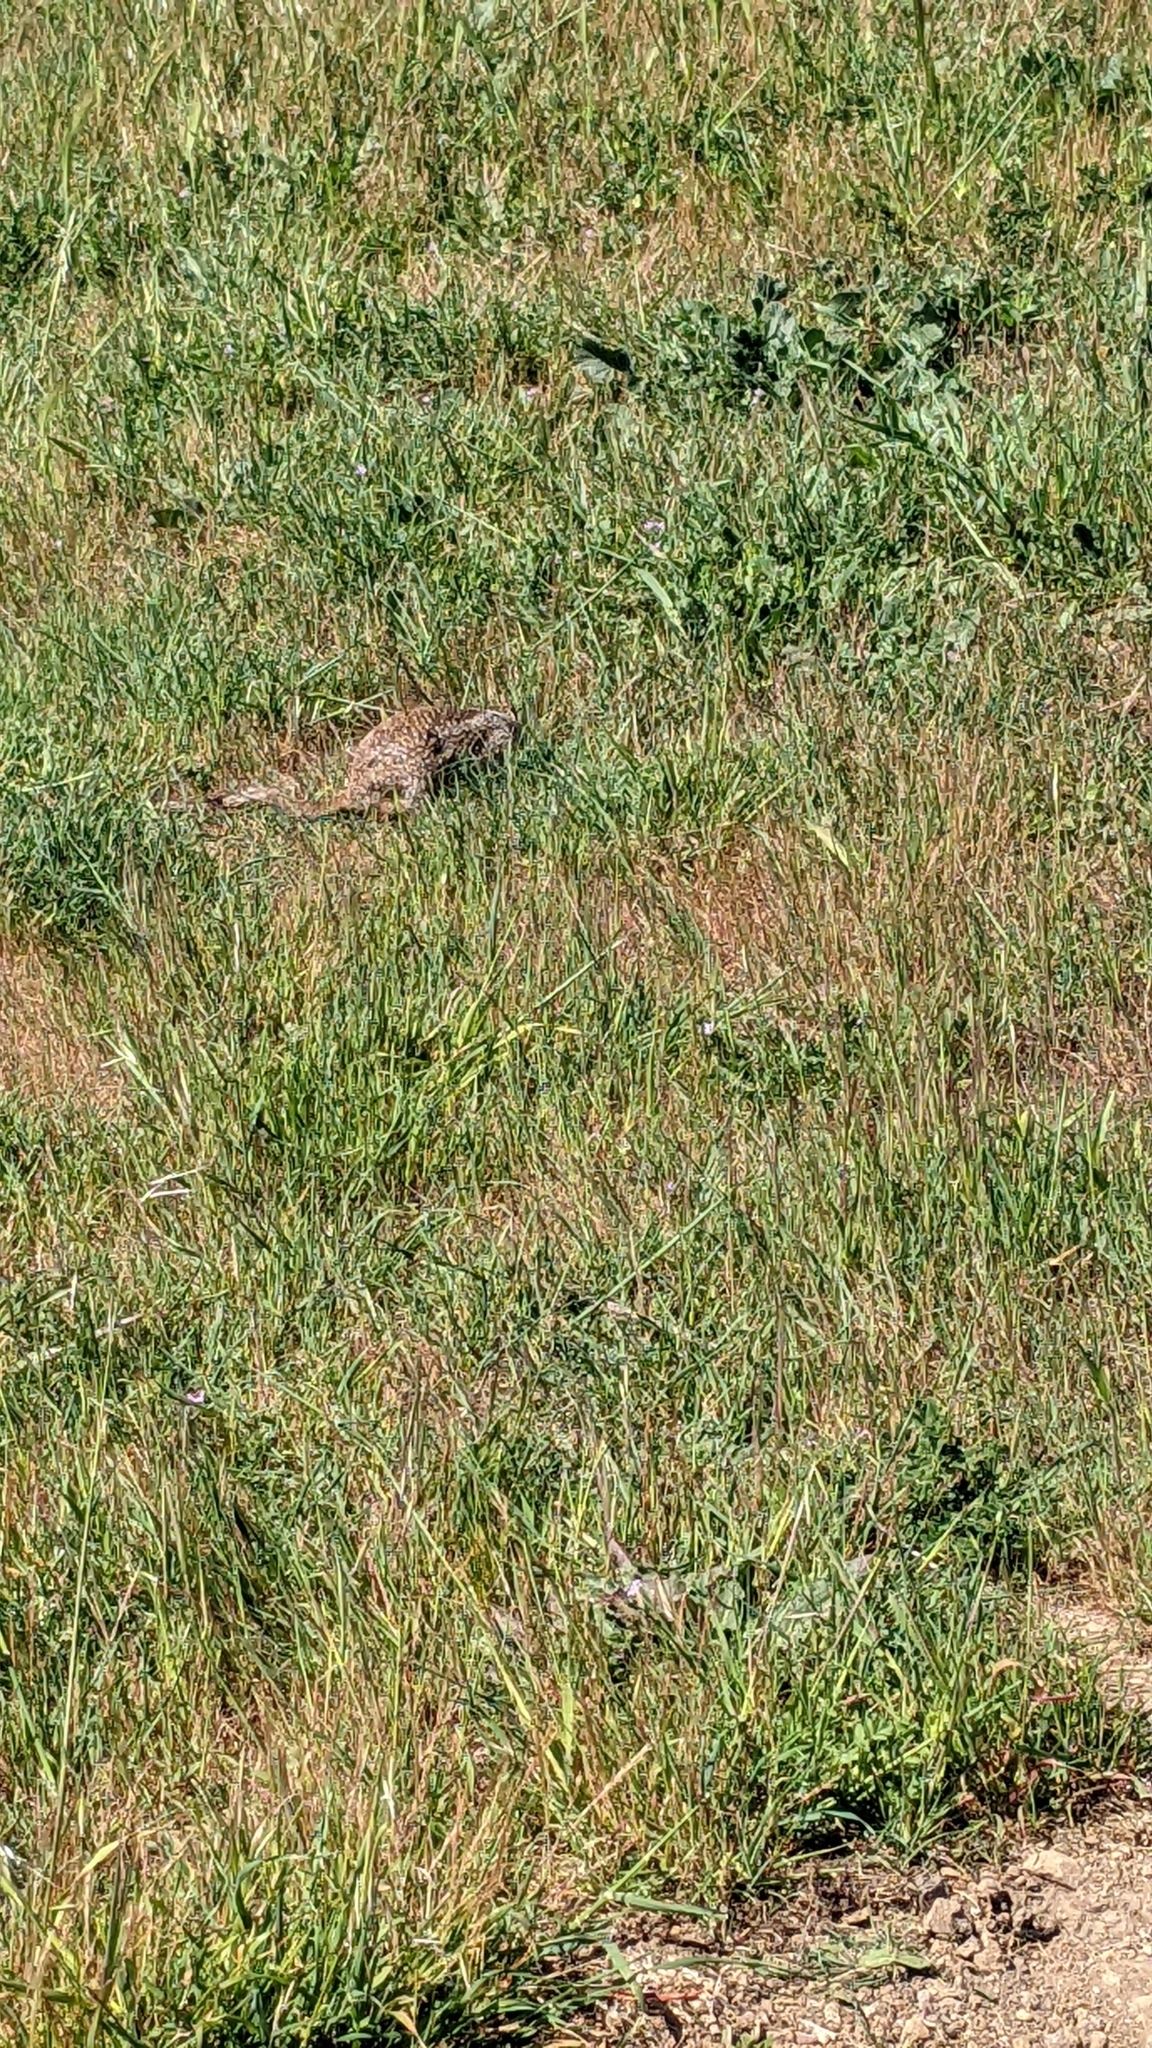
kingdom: Animalia
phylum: Chordata
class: Mammalia
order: Rodentia
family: Sciuridae
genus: Otospermophilus
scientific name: Otospermophilus beecheyi
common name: California ground squirrel
